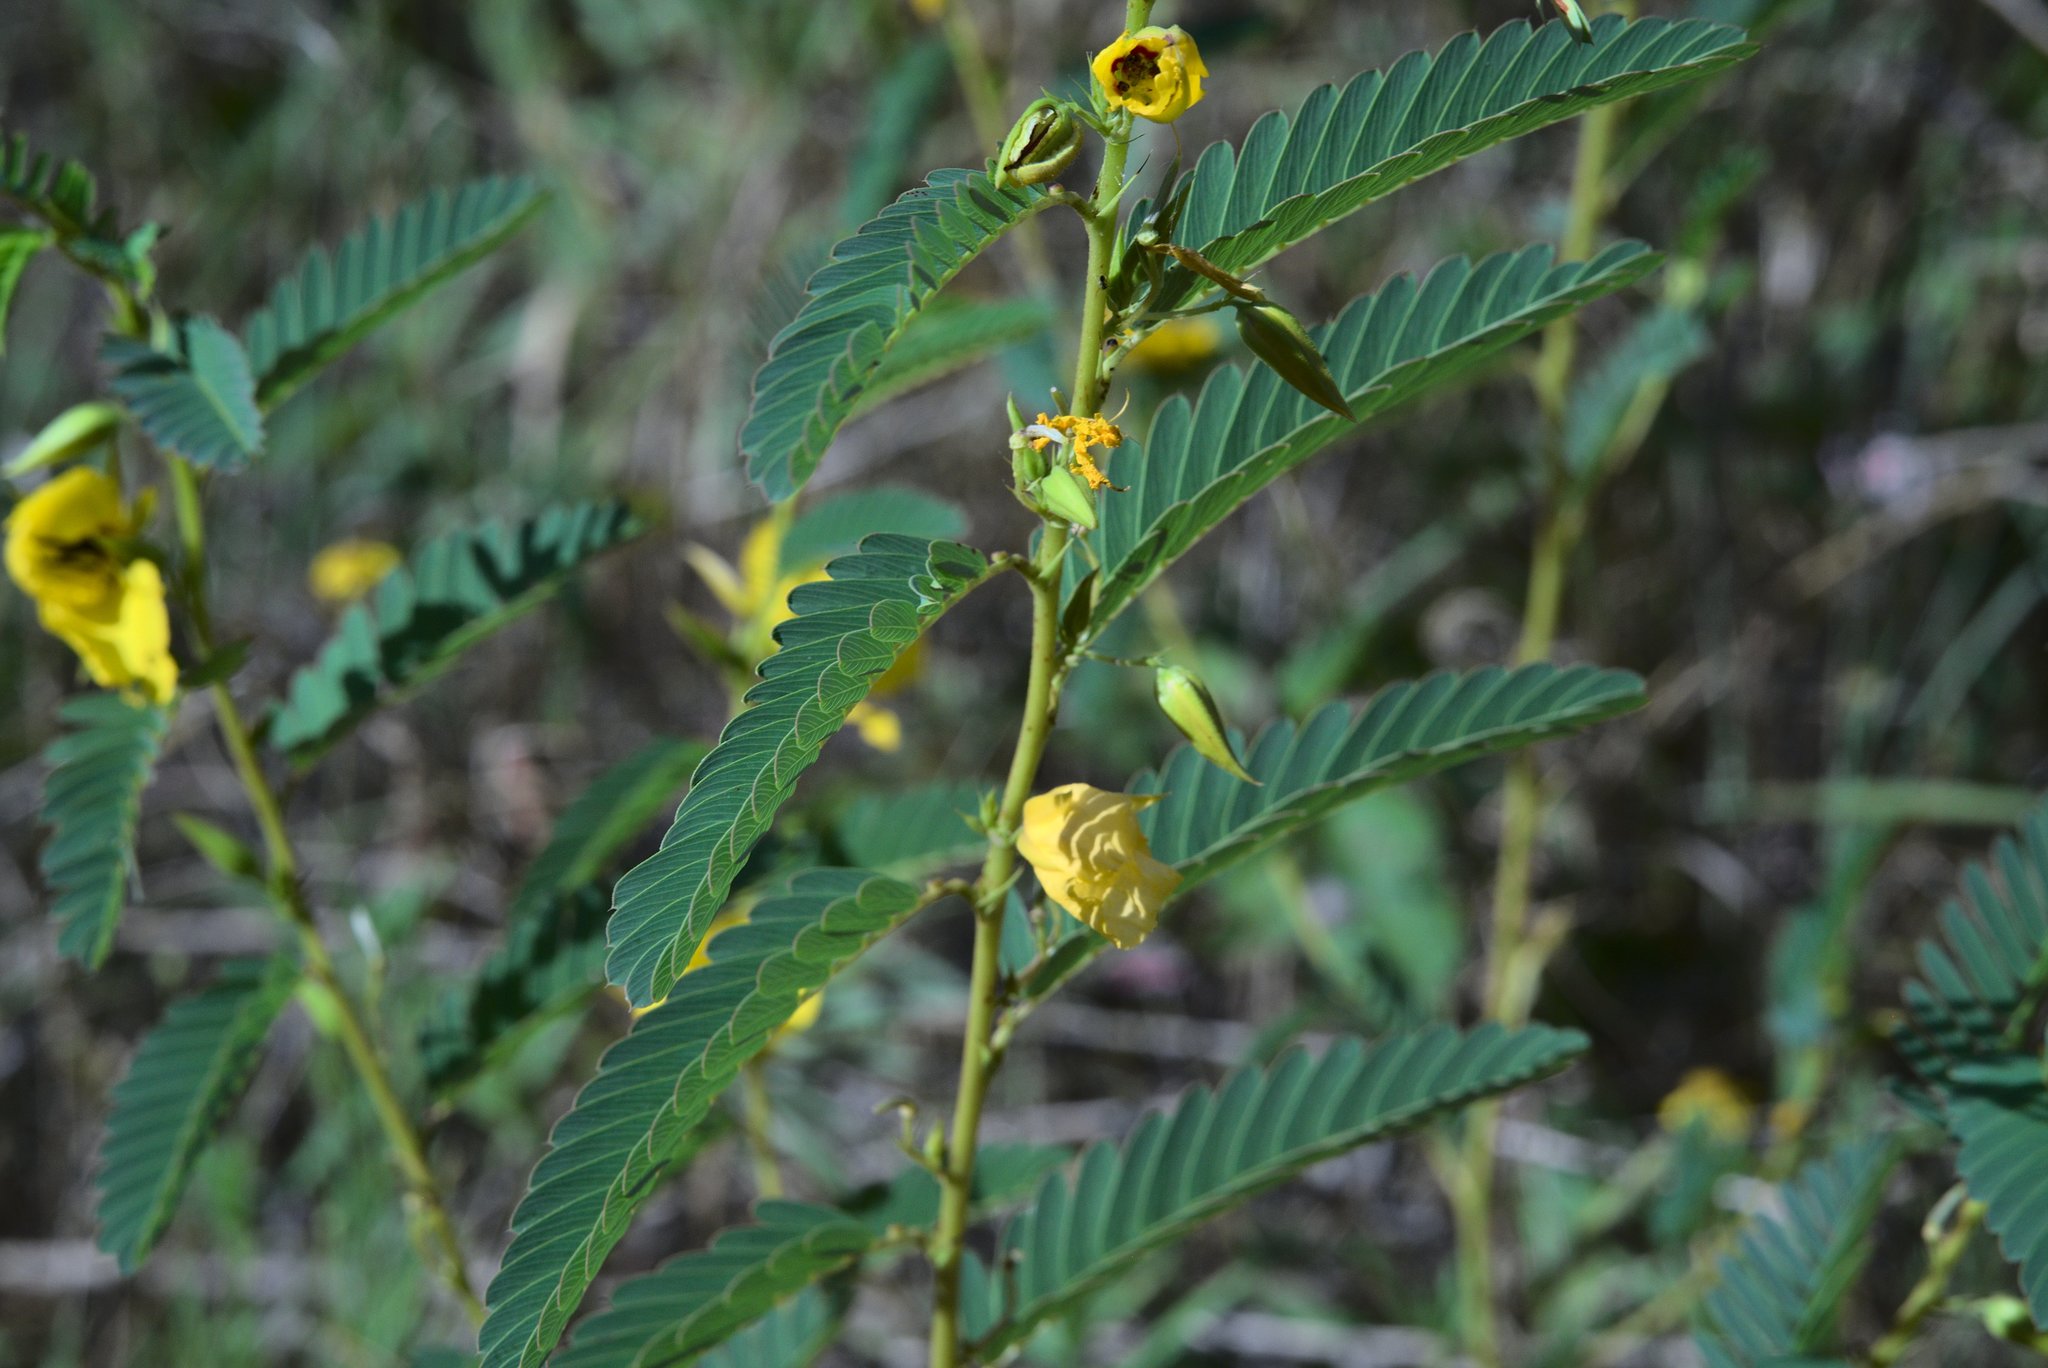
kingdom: Plantae
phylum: Tracheophyta
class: Magnoliopsida
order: Fabales
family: Fabaceae
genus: Chamaecrista
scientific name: Chamaecrista fasciculata
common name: Golden cassia
